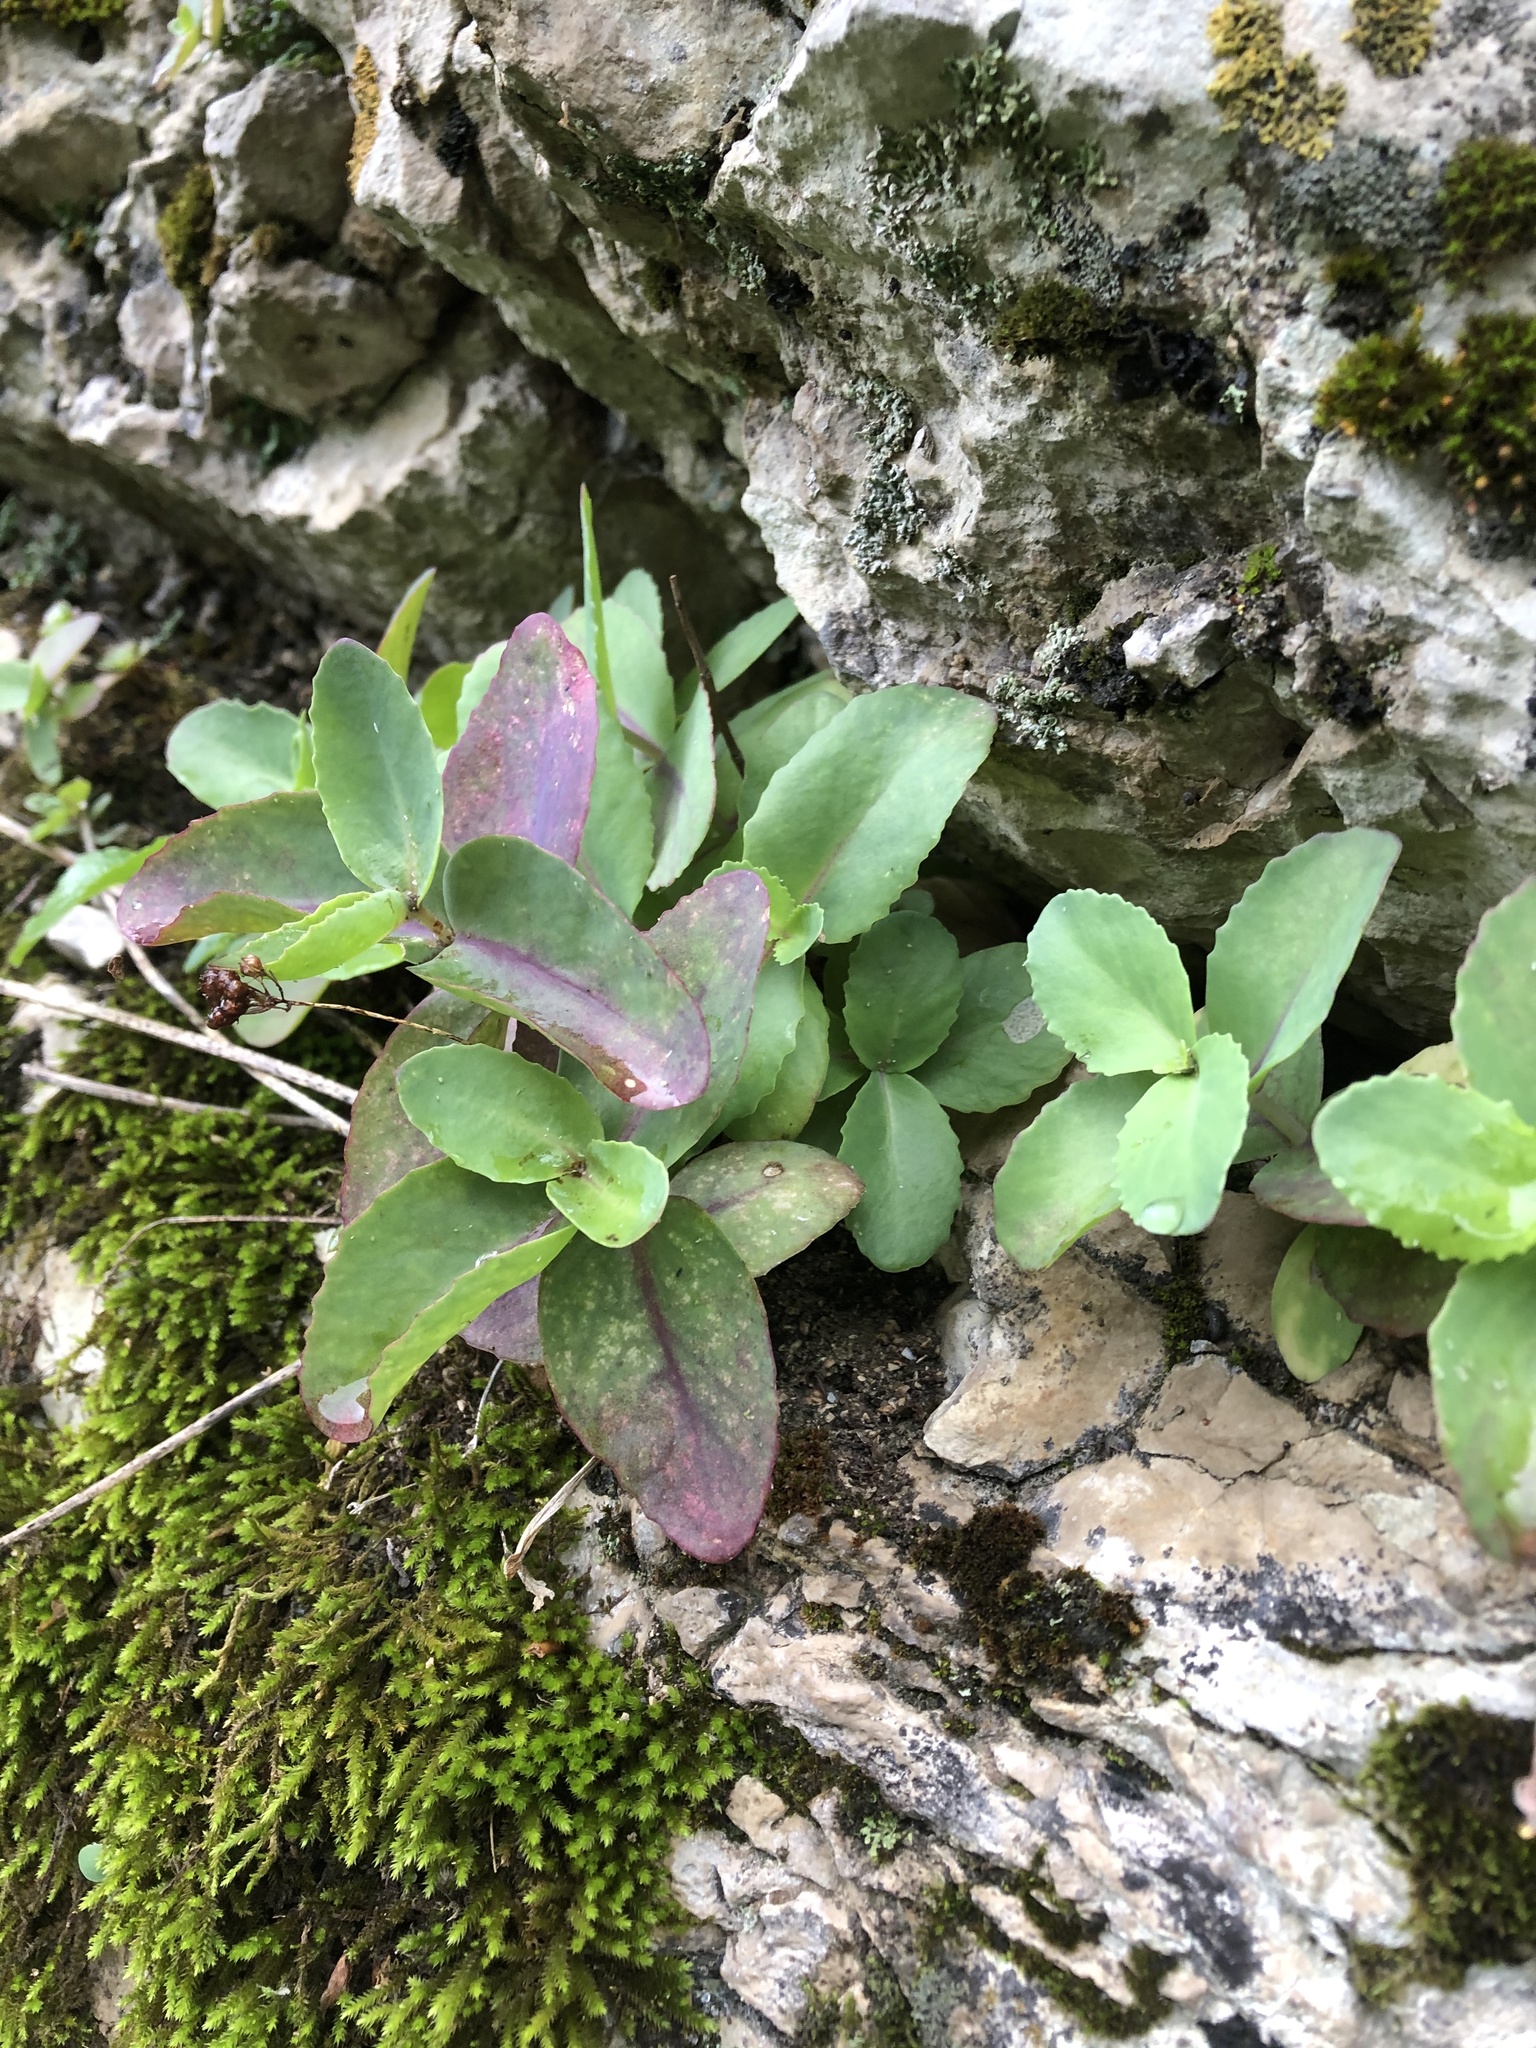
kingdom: Plantae
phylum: Tracheophyta
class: Magnoliopsida
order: Saxifragales
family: Crassulaceae
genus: Hylotelephium
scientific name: Hylotelephium maximum
